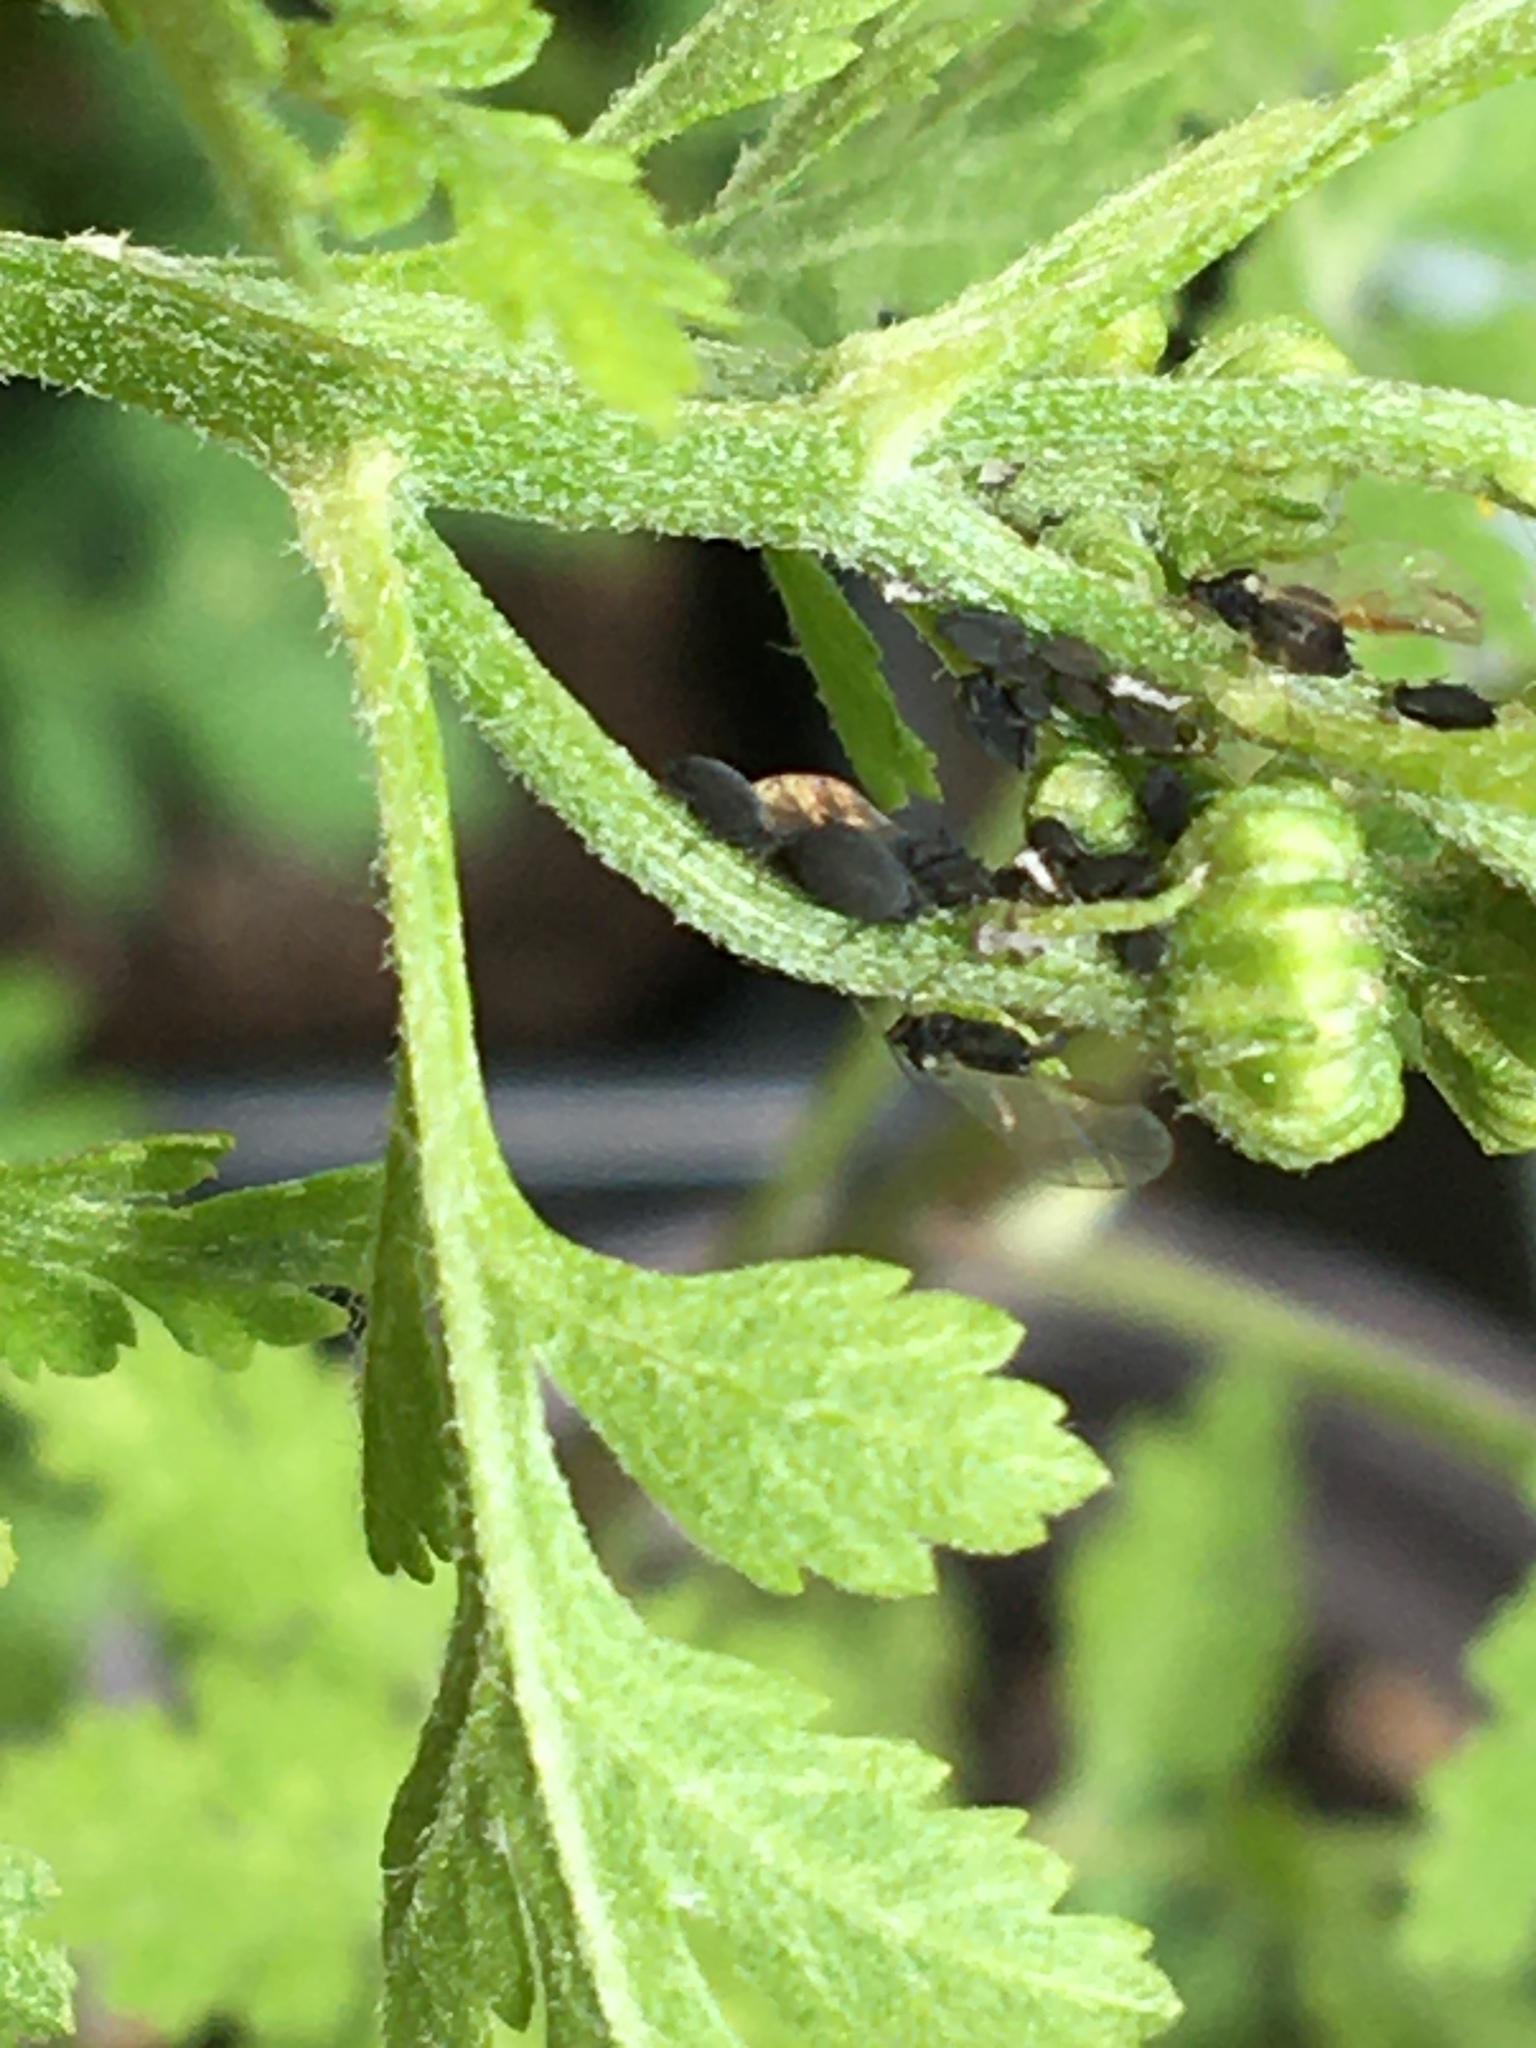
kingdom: Animalia
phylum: Arthropoda
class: Insecta
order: Diptera
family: Syrphidae
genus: Eupeodes
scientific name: Eupeodes
